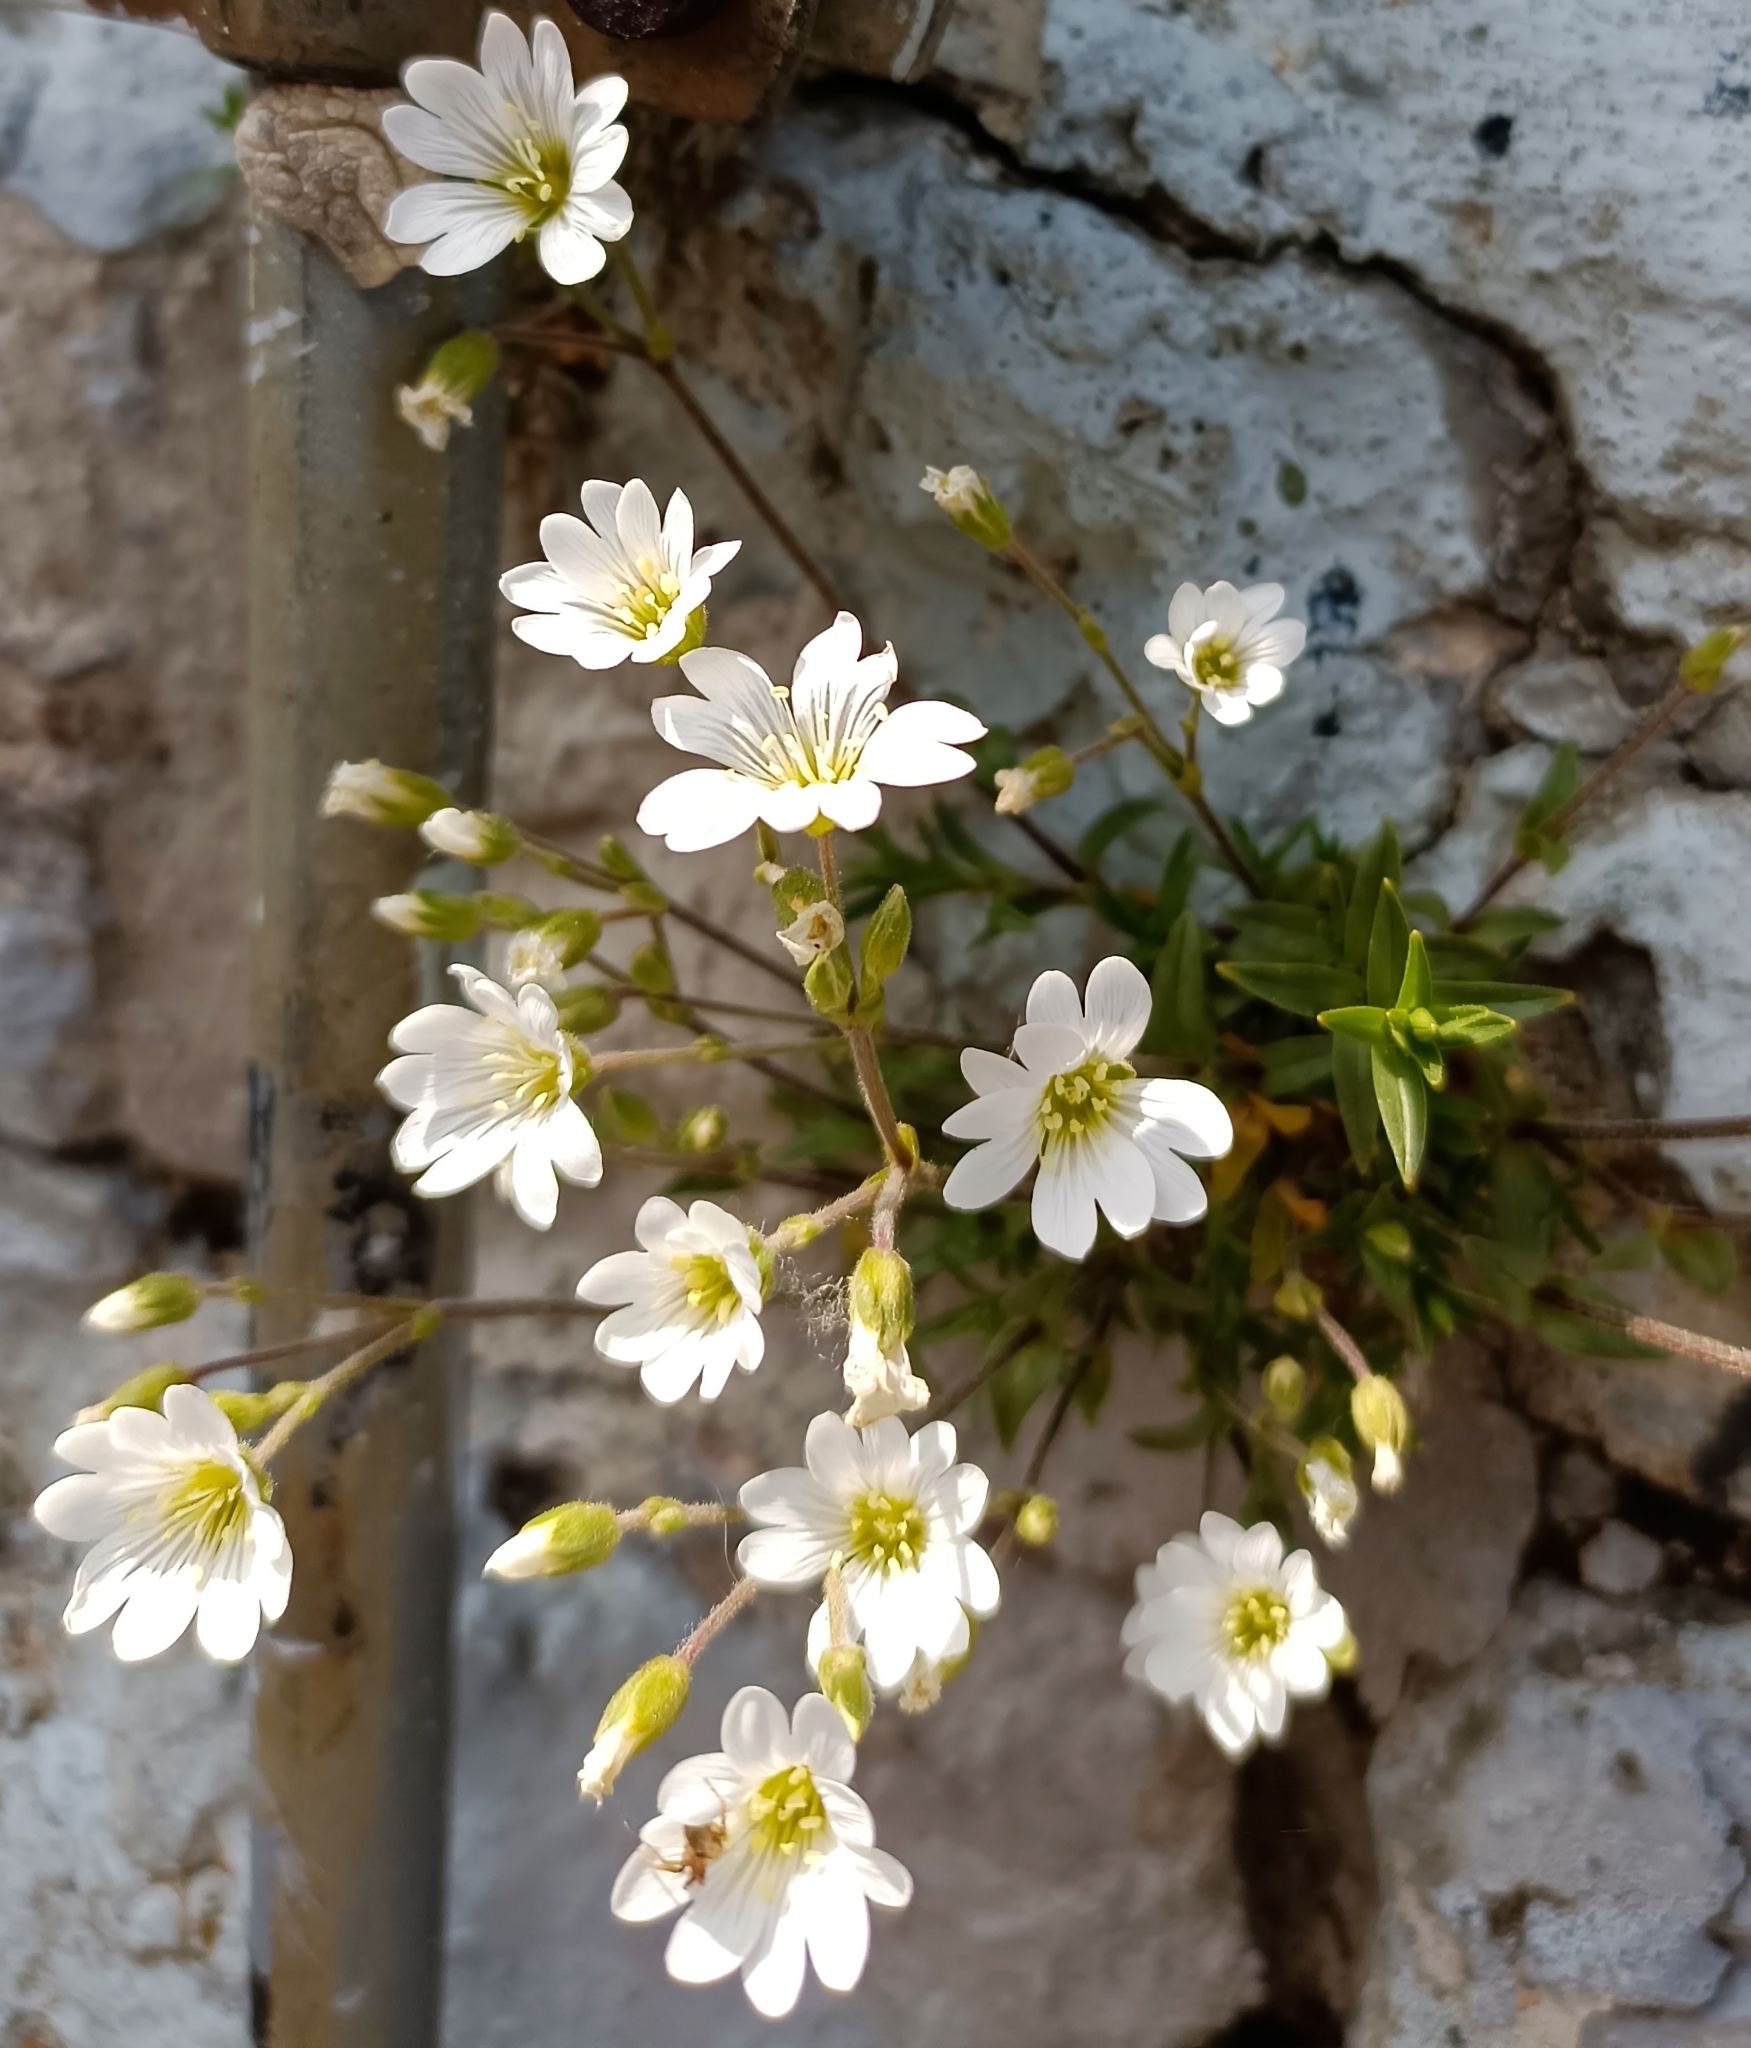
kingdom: Plantae
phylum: Tracheophyta
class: Magnoliopsida
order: Caryophyllales
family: Caryophyllaceae
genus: Cerastium
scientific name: Cerastium arvense
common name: Field mouse-ear
